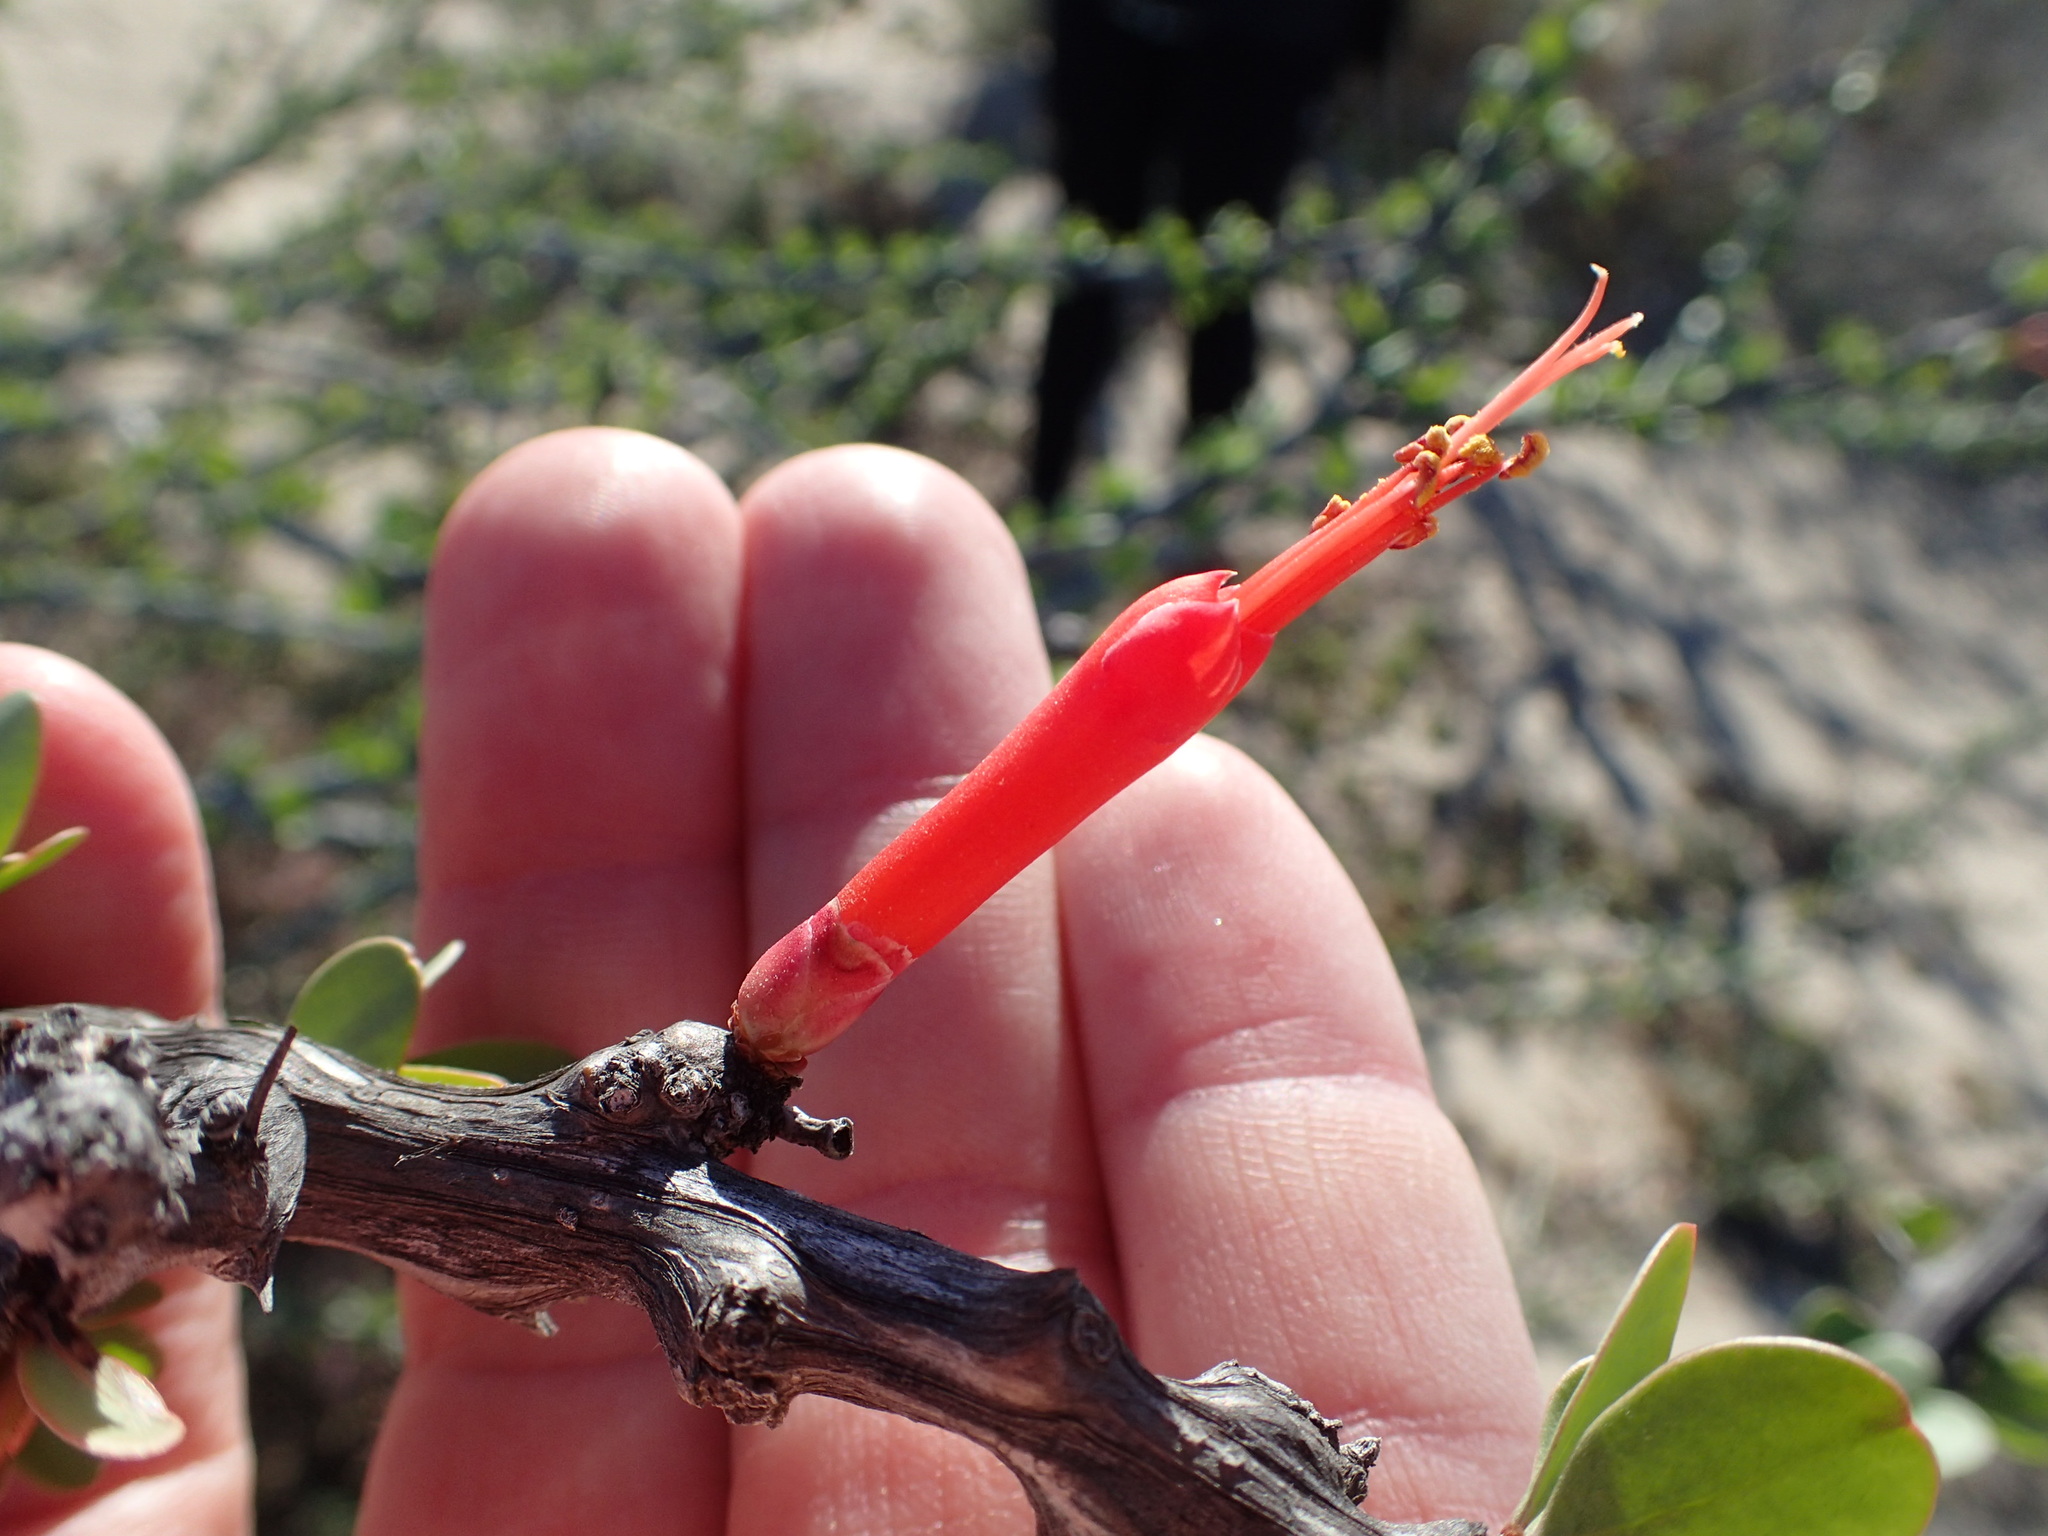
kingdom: Plantae
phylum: Tracheophyta
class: Magnoliopsida
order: Ericales
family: Fouquieriaceae
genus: Fouquieria
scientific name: Fouquieria diguetii
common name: Adam's tree
